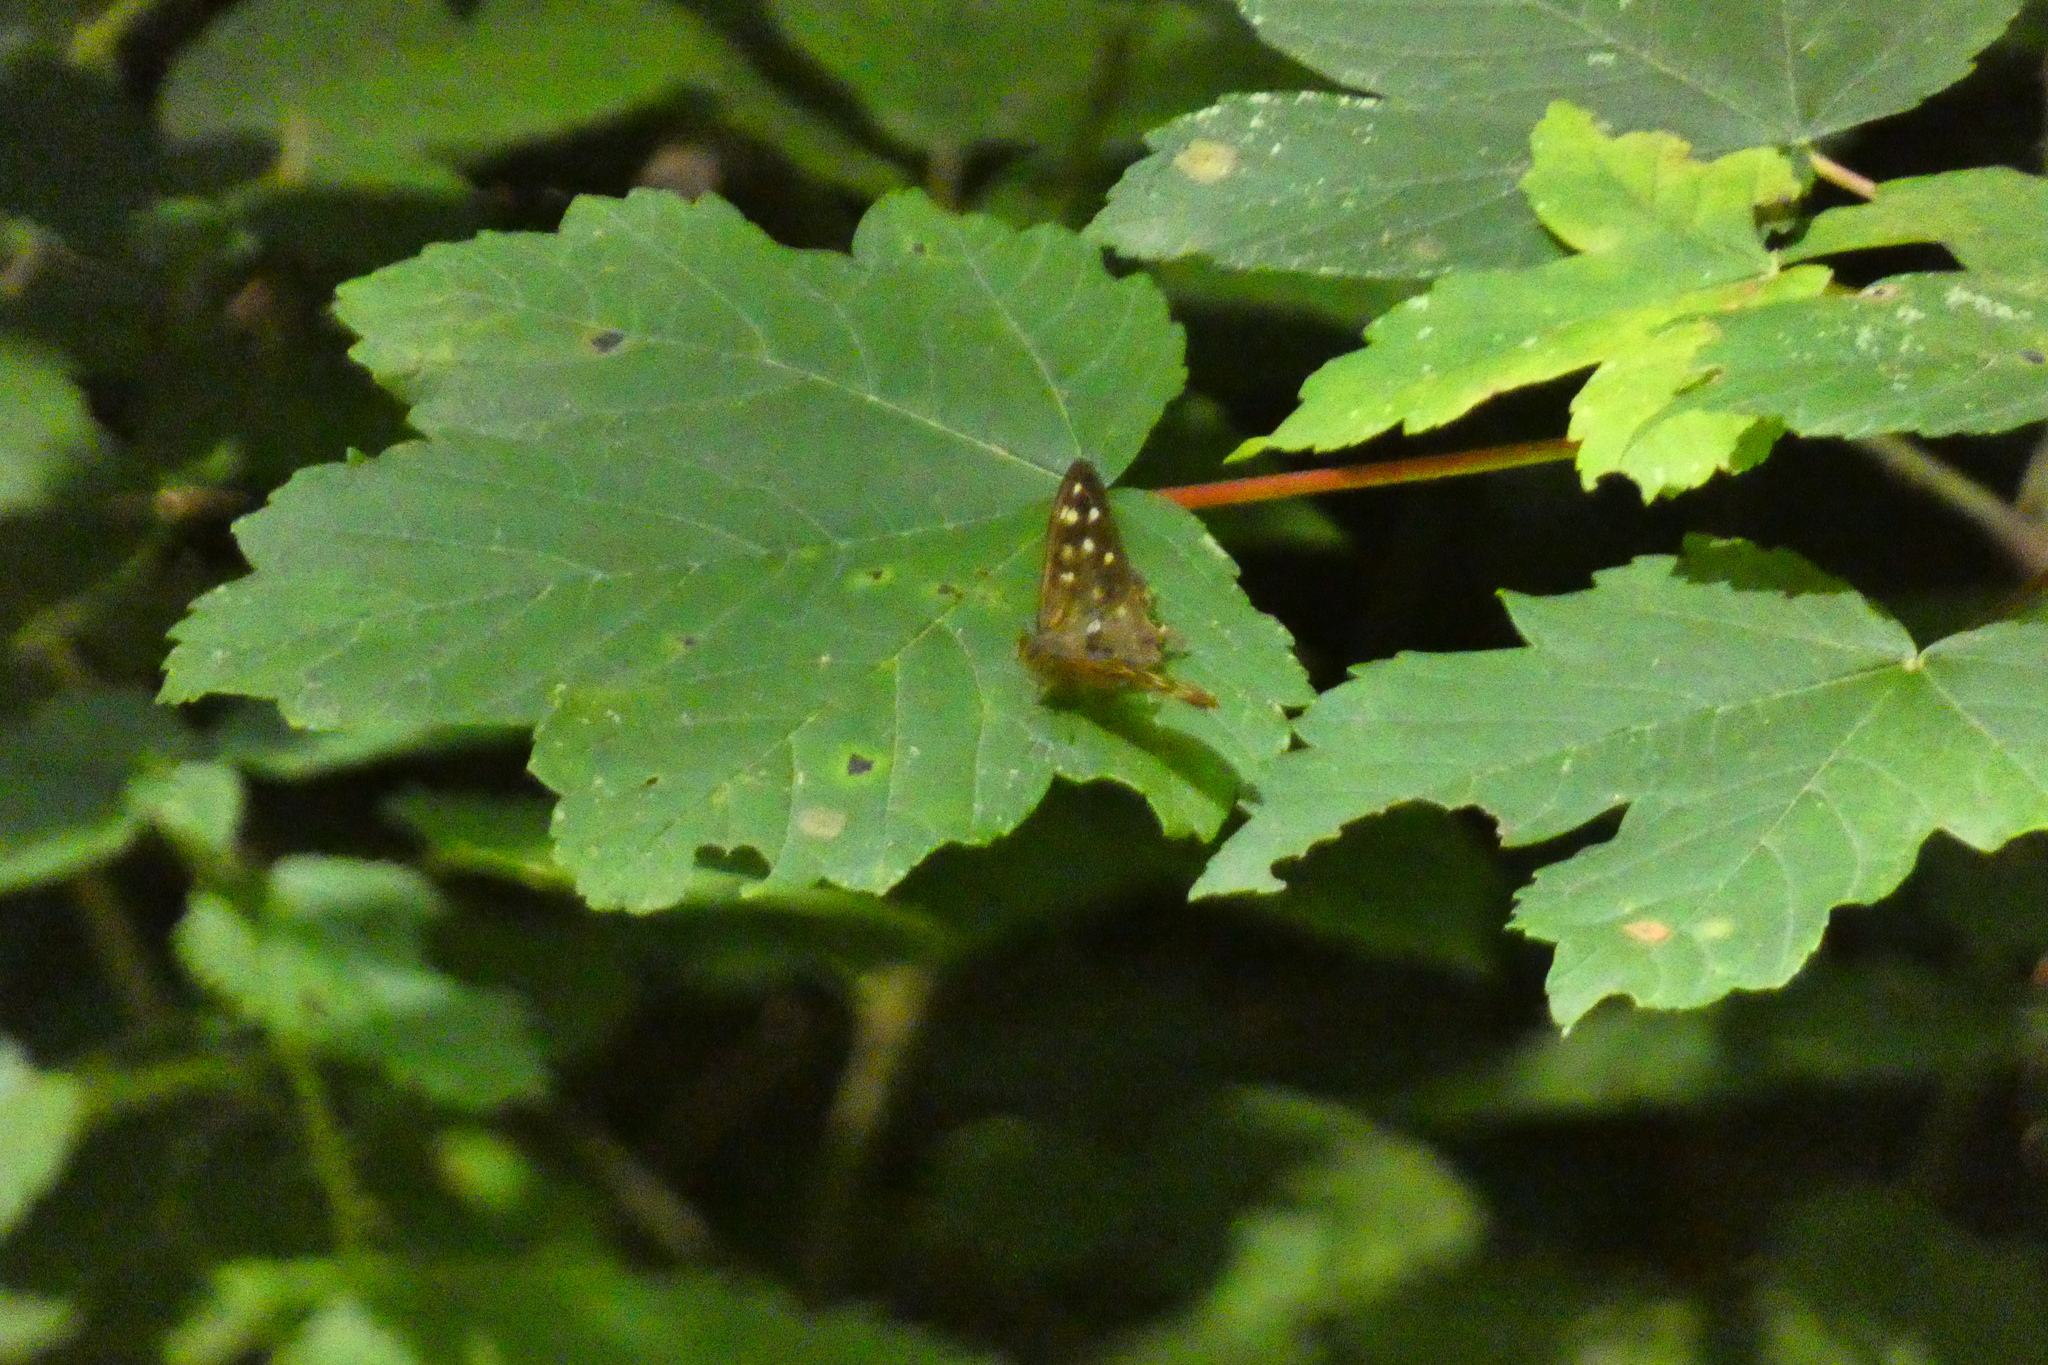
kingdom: Animalia
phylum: Arthropoda
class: Insecta
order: Lepidoptera
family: Nymphalidae
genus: Pararge
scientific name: Pararge aegeria
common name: Speckled wood
